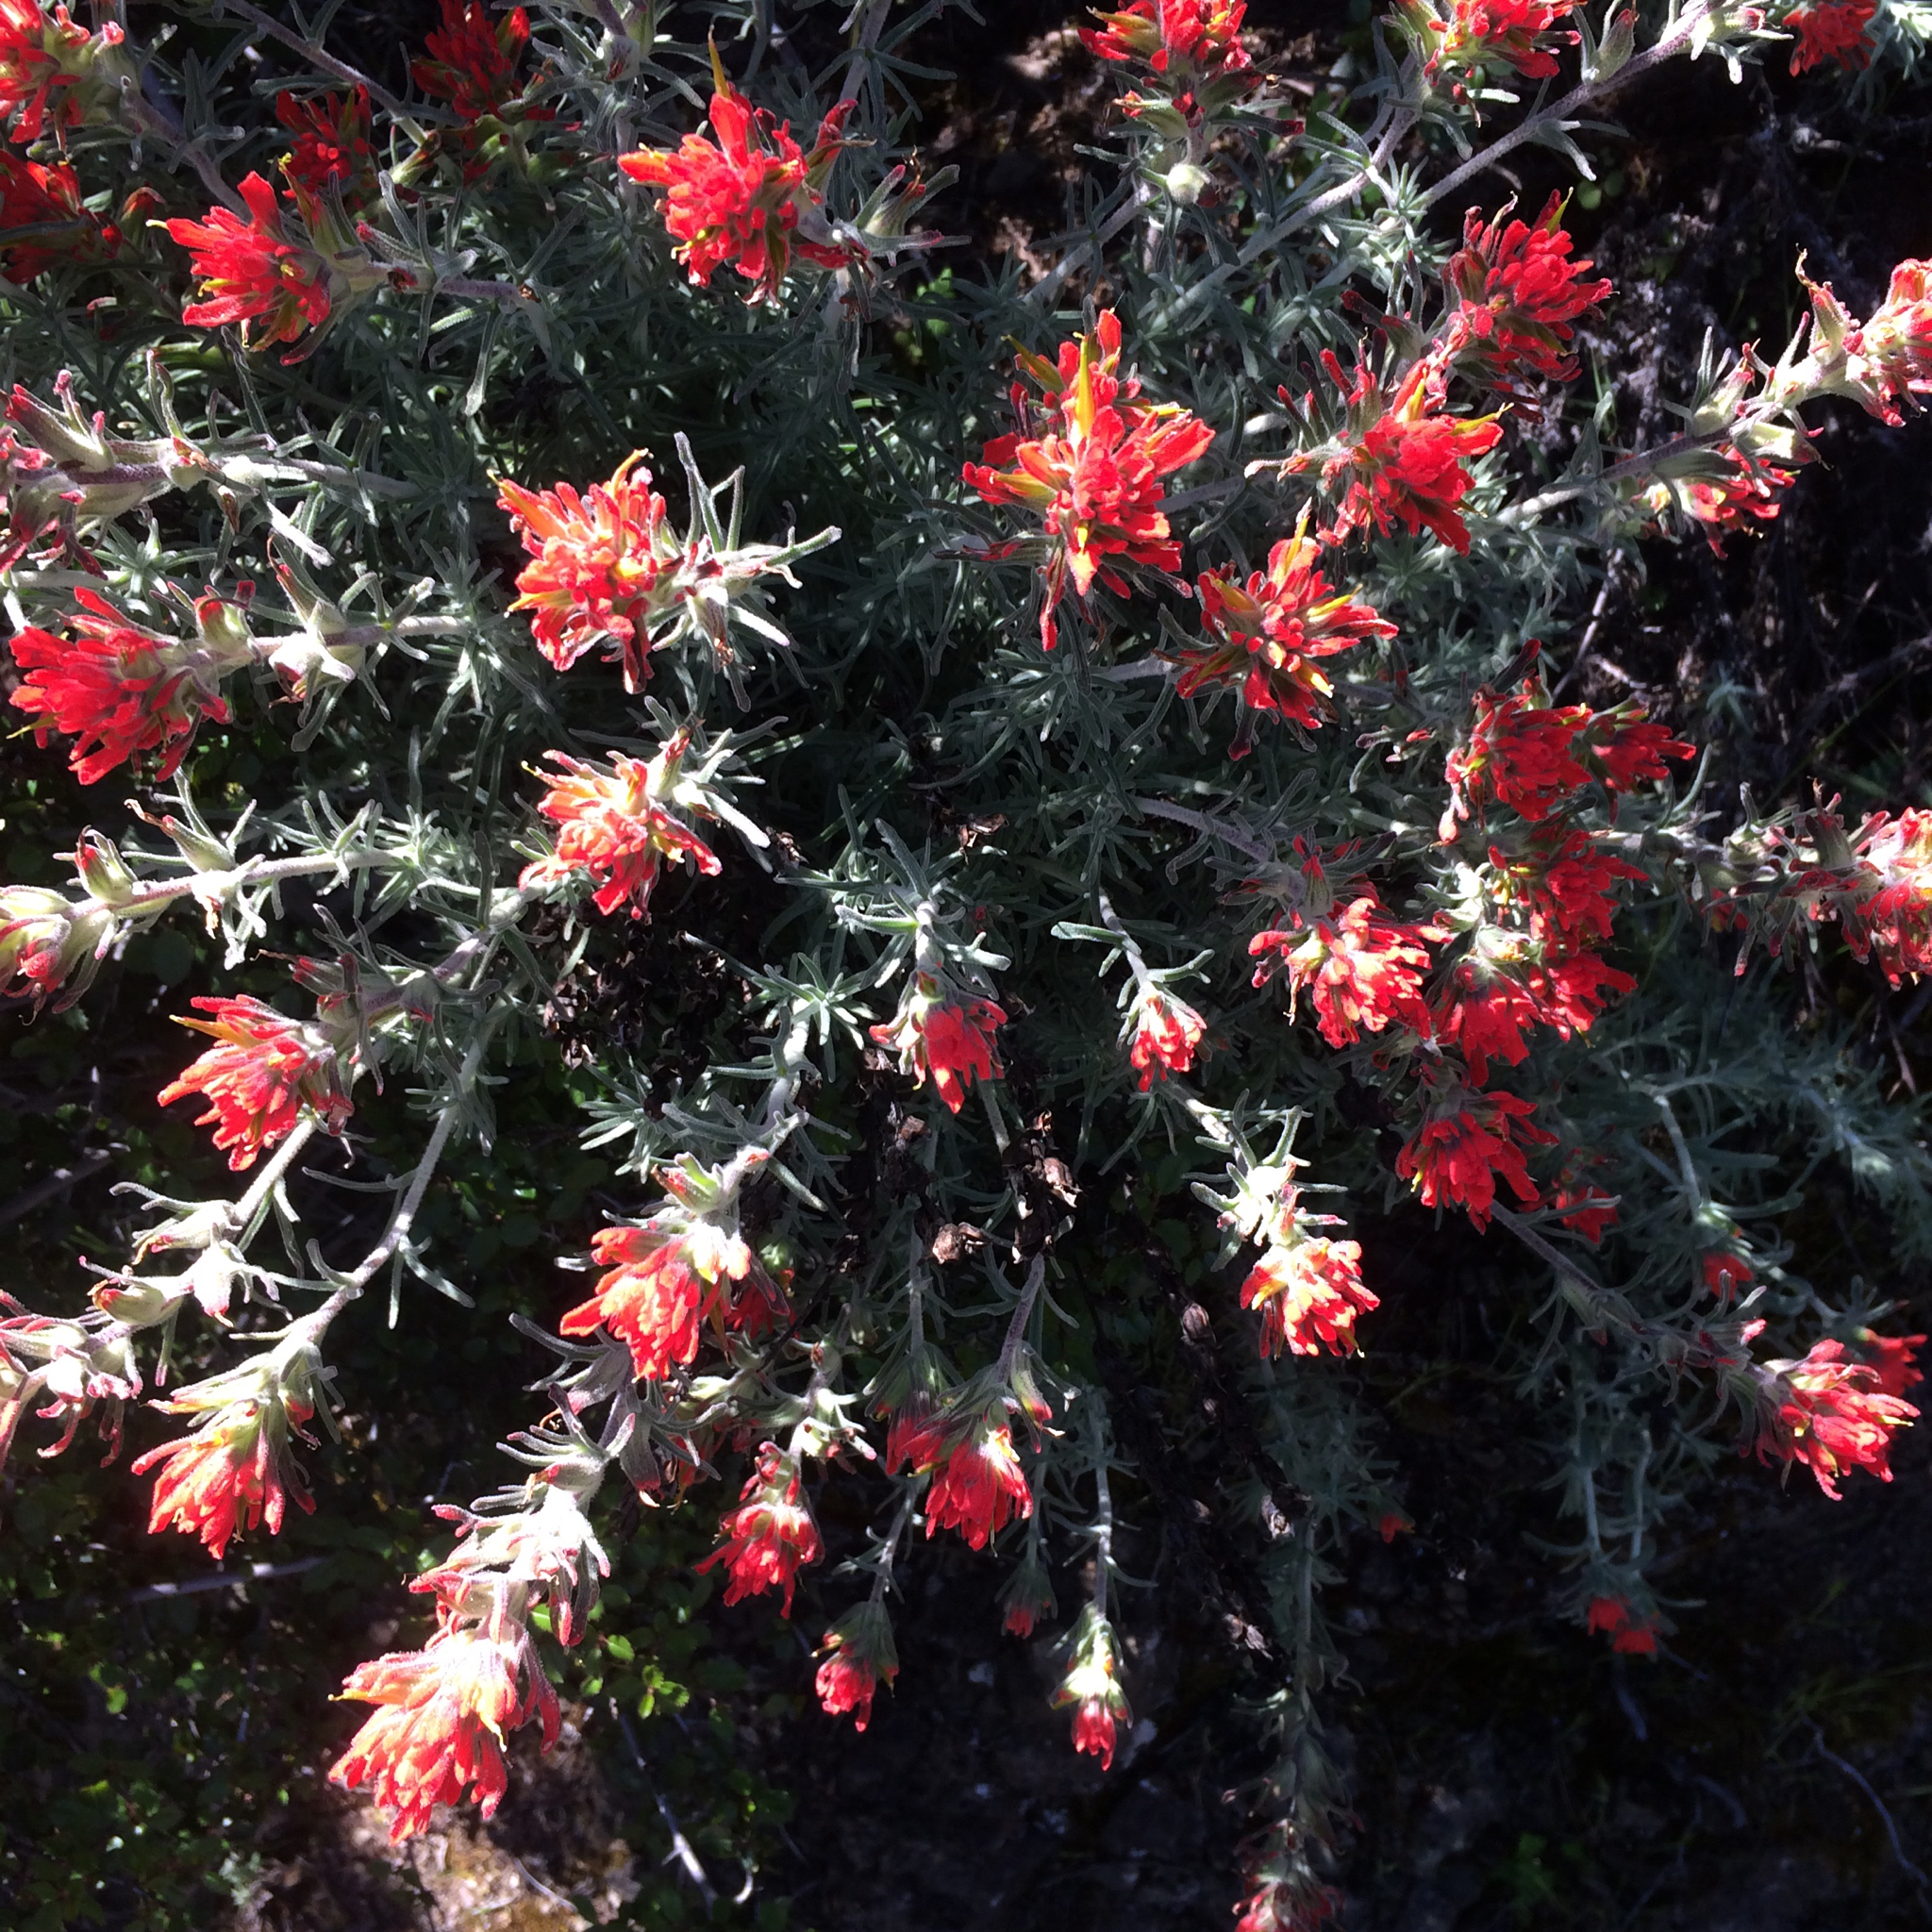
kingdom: Plantae
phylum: Tracheophyta
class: Magnoliopsida
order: Lamiales
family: Orobanchaceae
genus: Castilleja
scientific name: Castilleja foliolosa
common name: Woolly indian paintbrush
